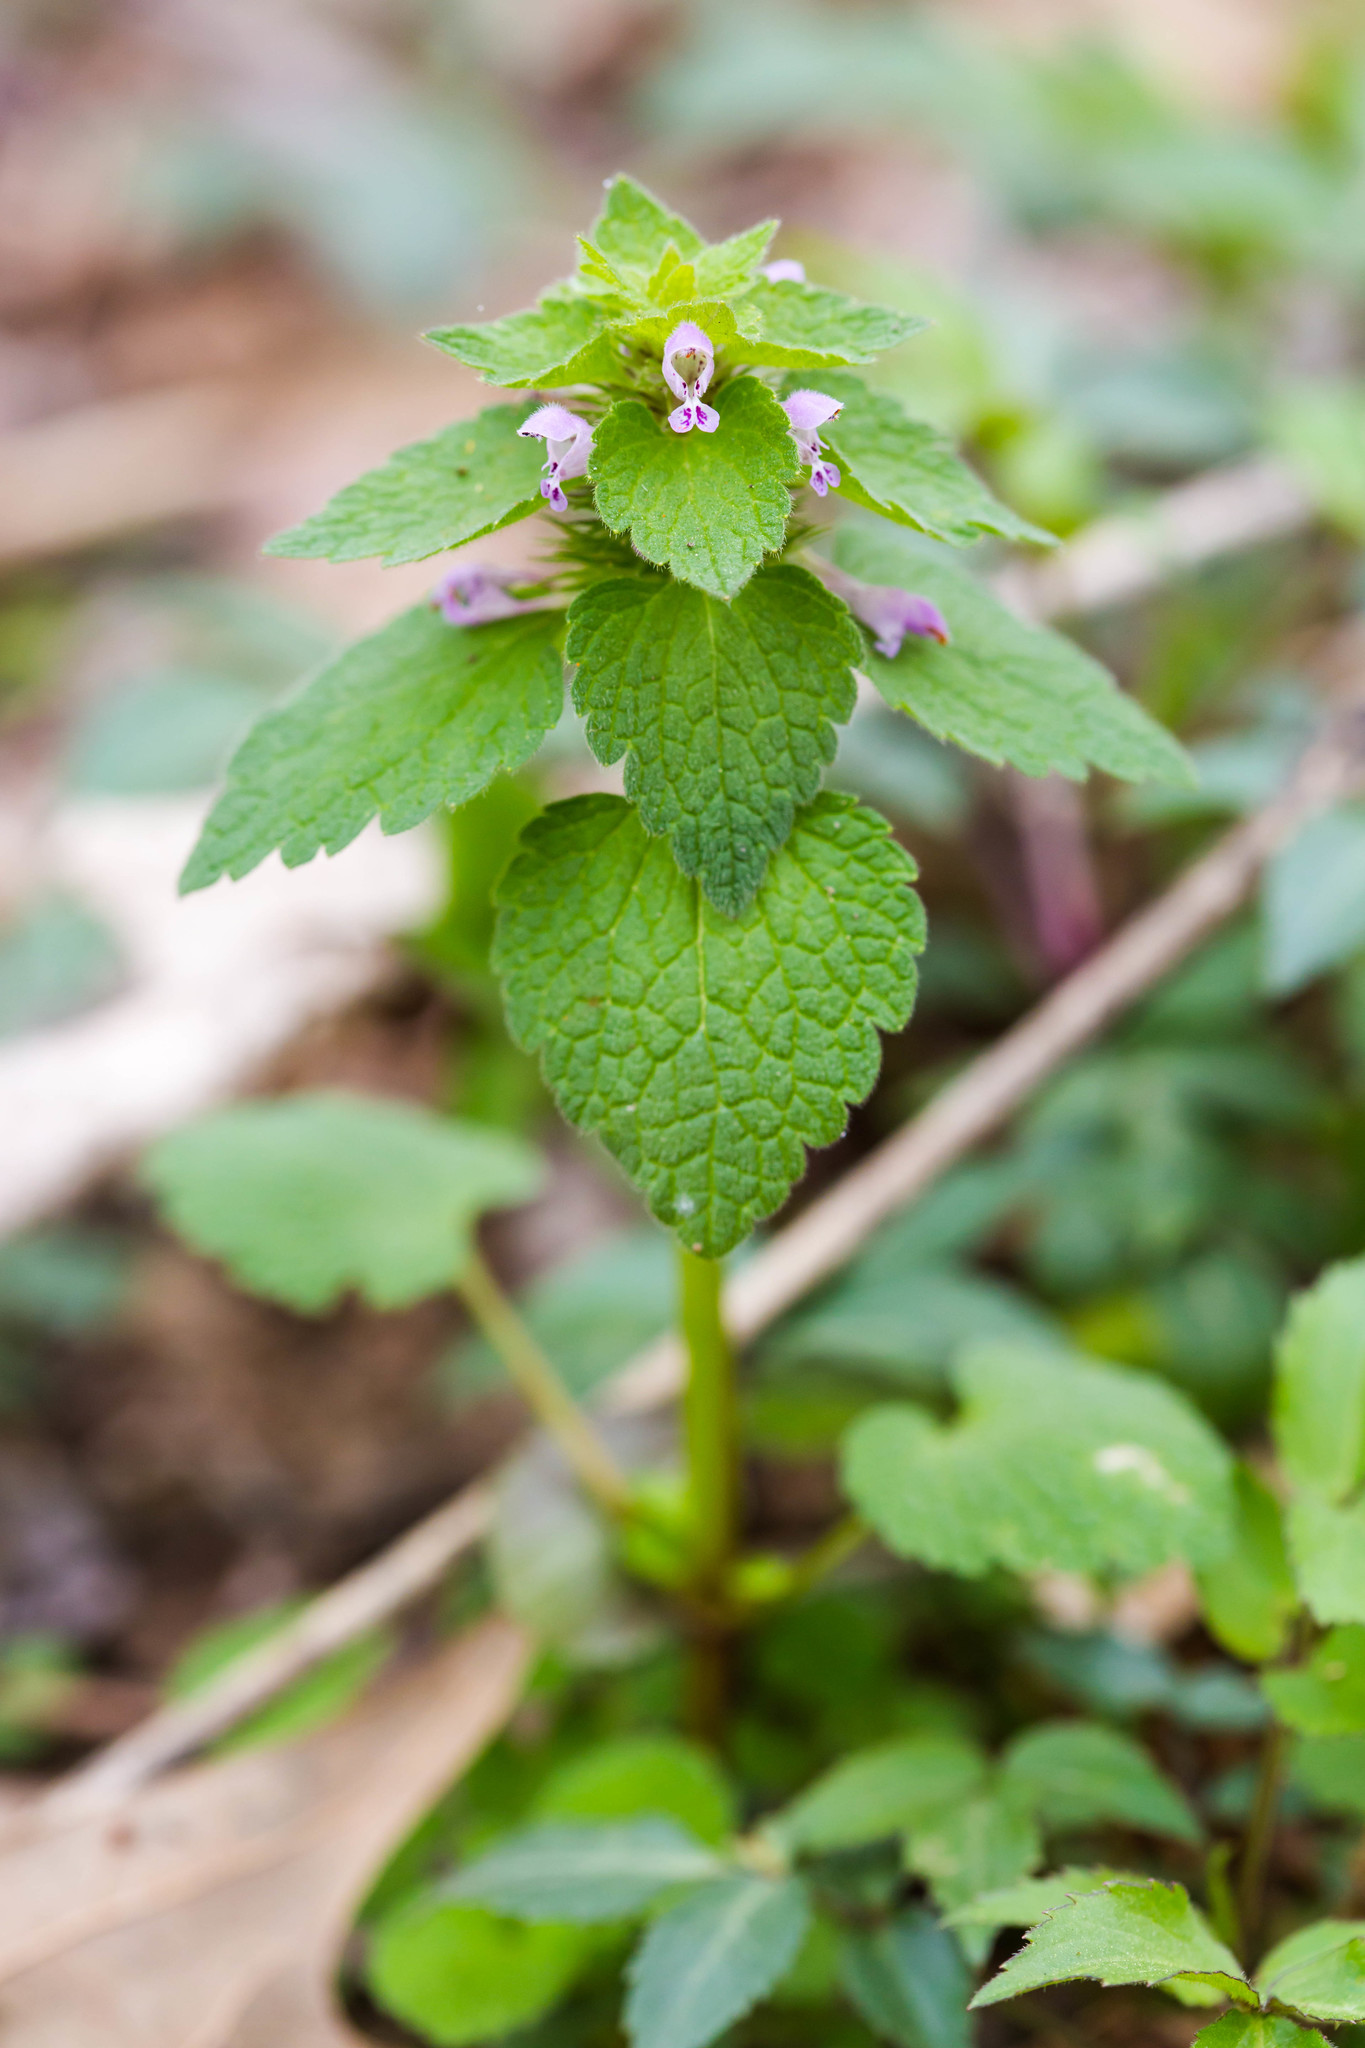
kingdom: Plantae
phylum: Tracheophyta
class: Magnoliopsida
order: Lamiales
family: Lamiaceae
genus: Lamium
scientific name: Lamium purpureum
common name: Red dead-nettle
